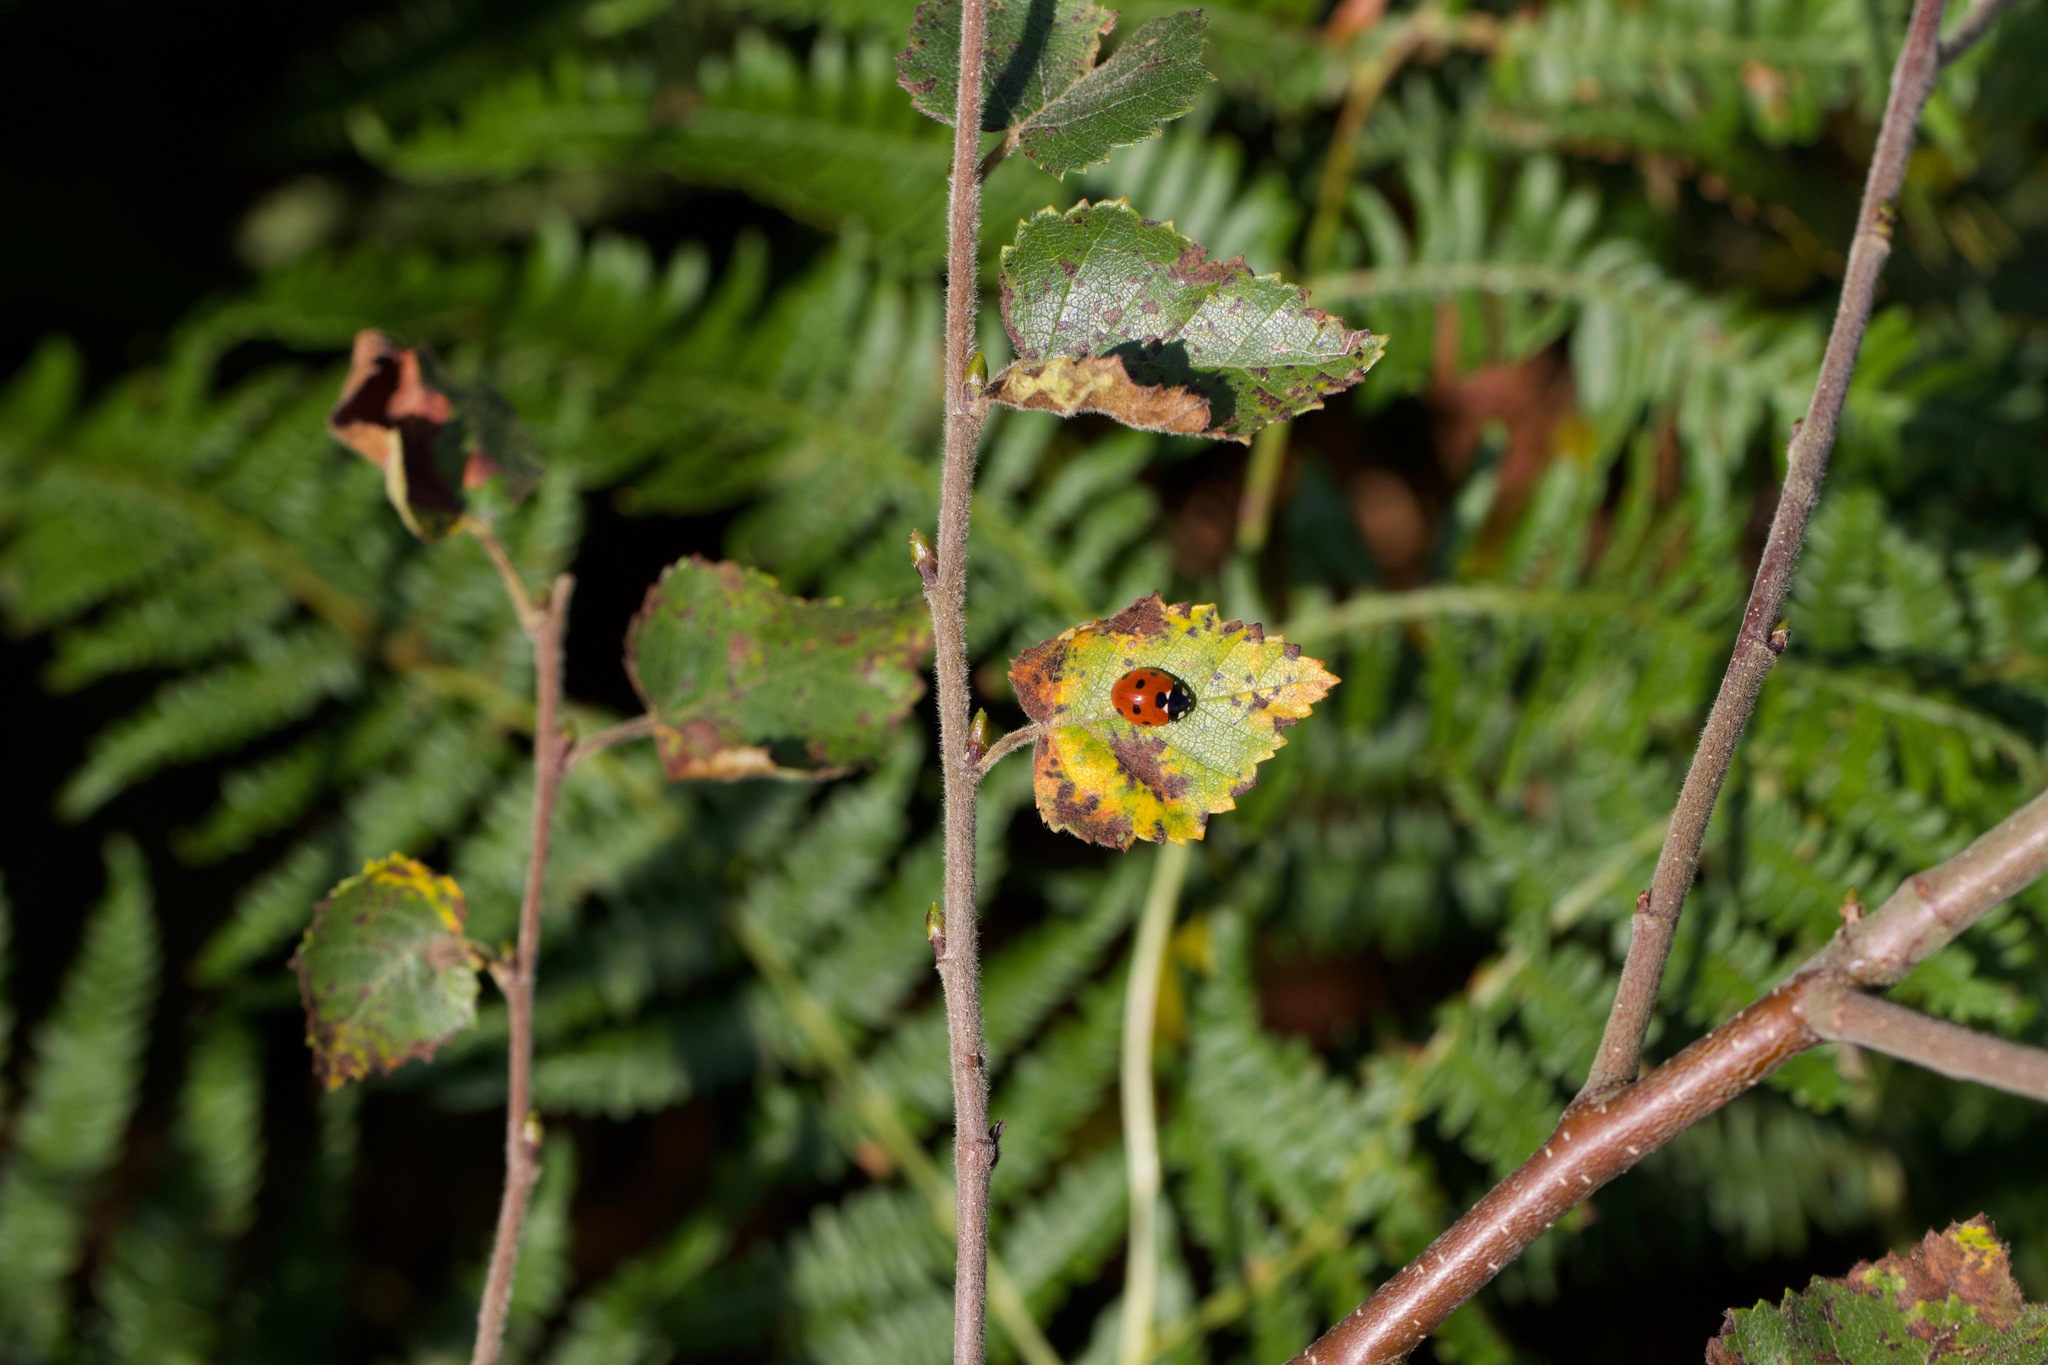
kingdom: Animalia
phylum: Arthropoda
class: Insecta
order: Coleoptera
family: Coccinellidae
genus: Coccinella
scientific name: Coccinella septempunctata
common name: Sevenspotted lady beetle
